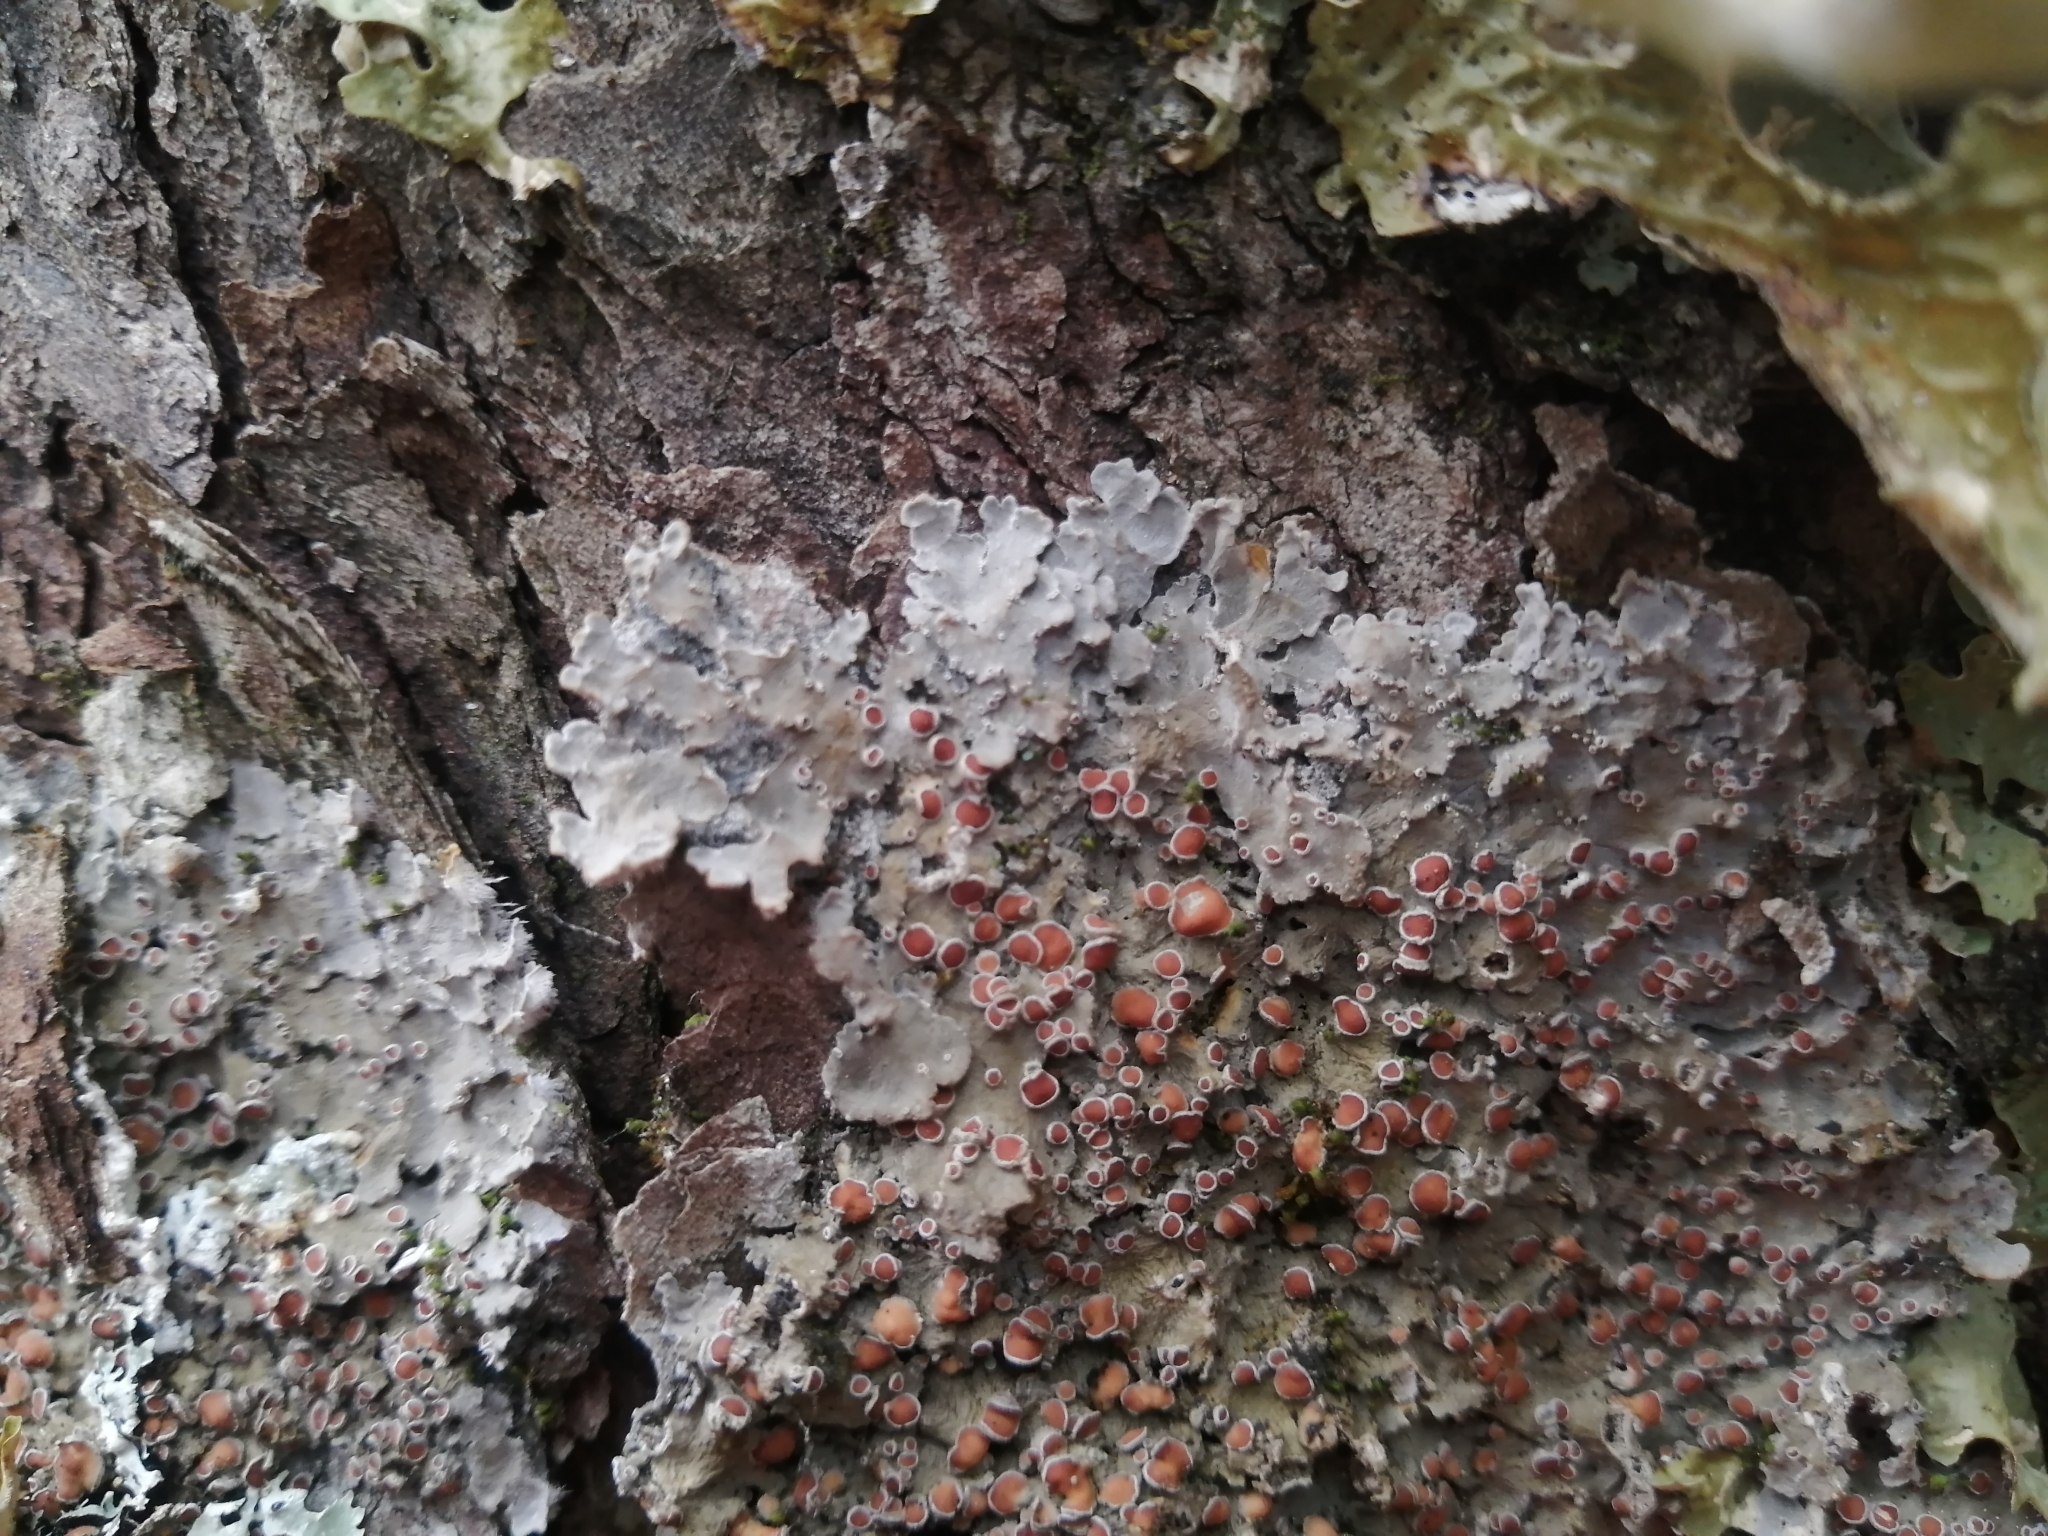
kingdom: Fungi
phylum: Ascomycota
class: Lecanoromycetes
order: Peltigerales
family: Pannariaceae
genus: Pannaria
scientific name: Pannaria lurida
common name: Wrinkled shingle lichen
